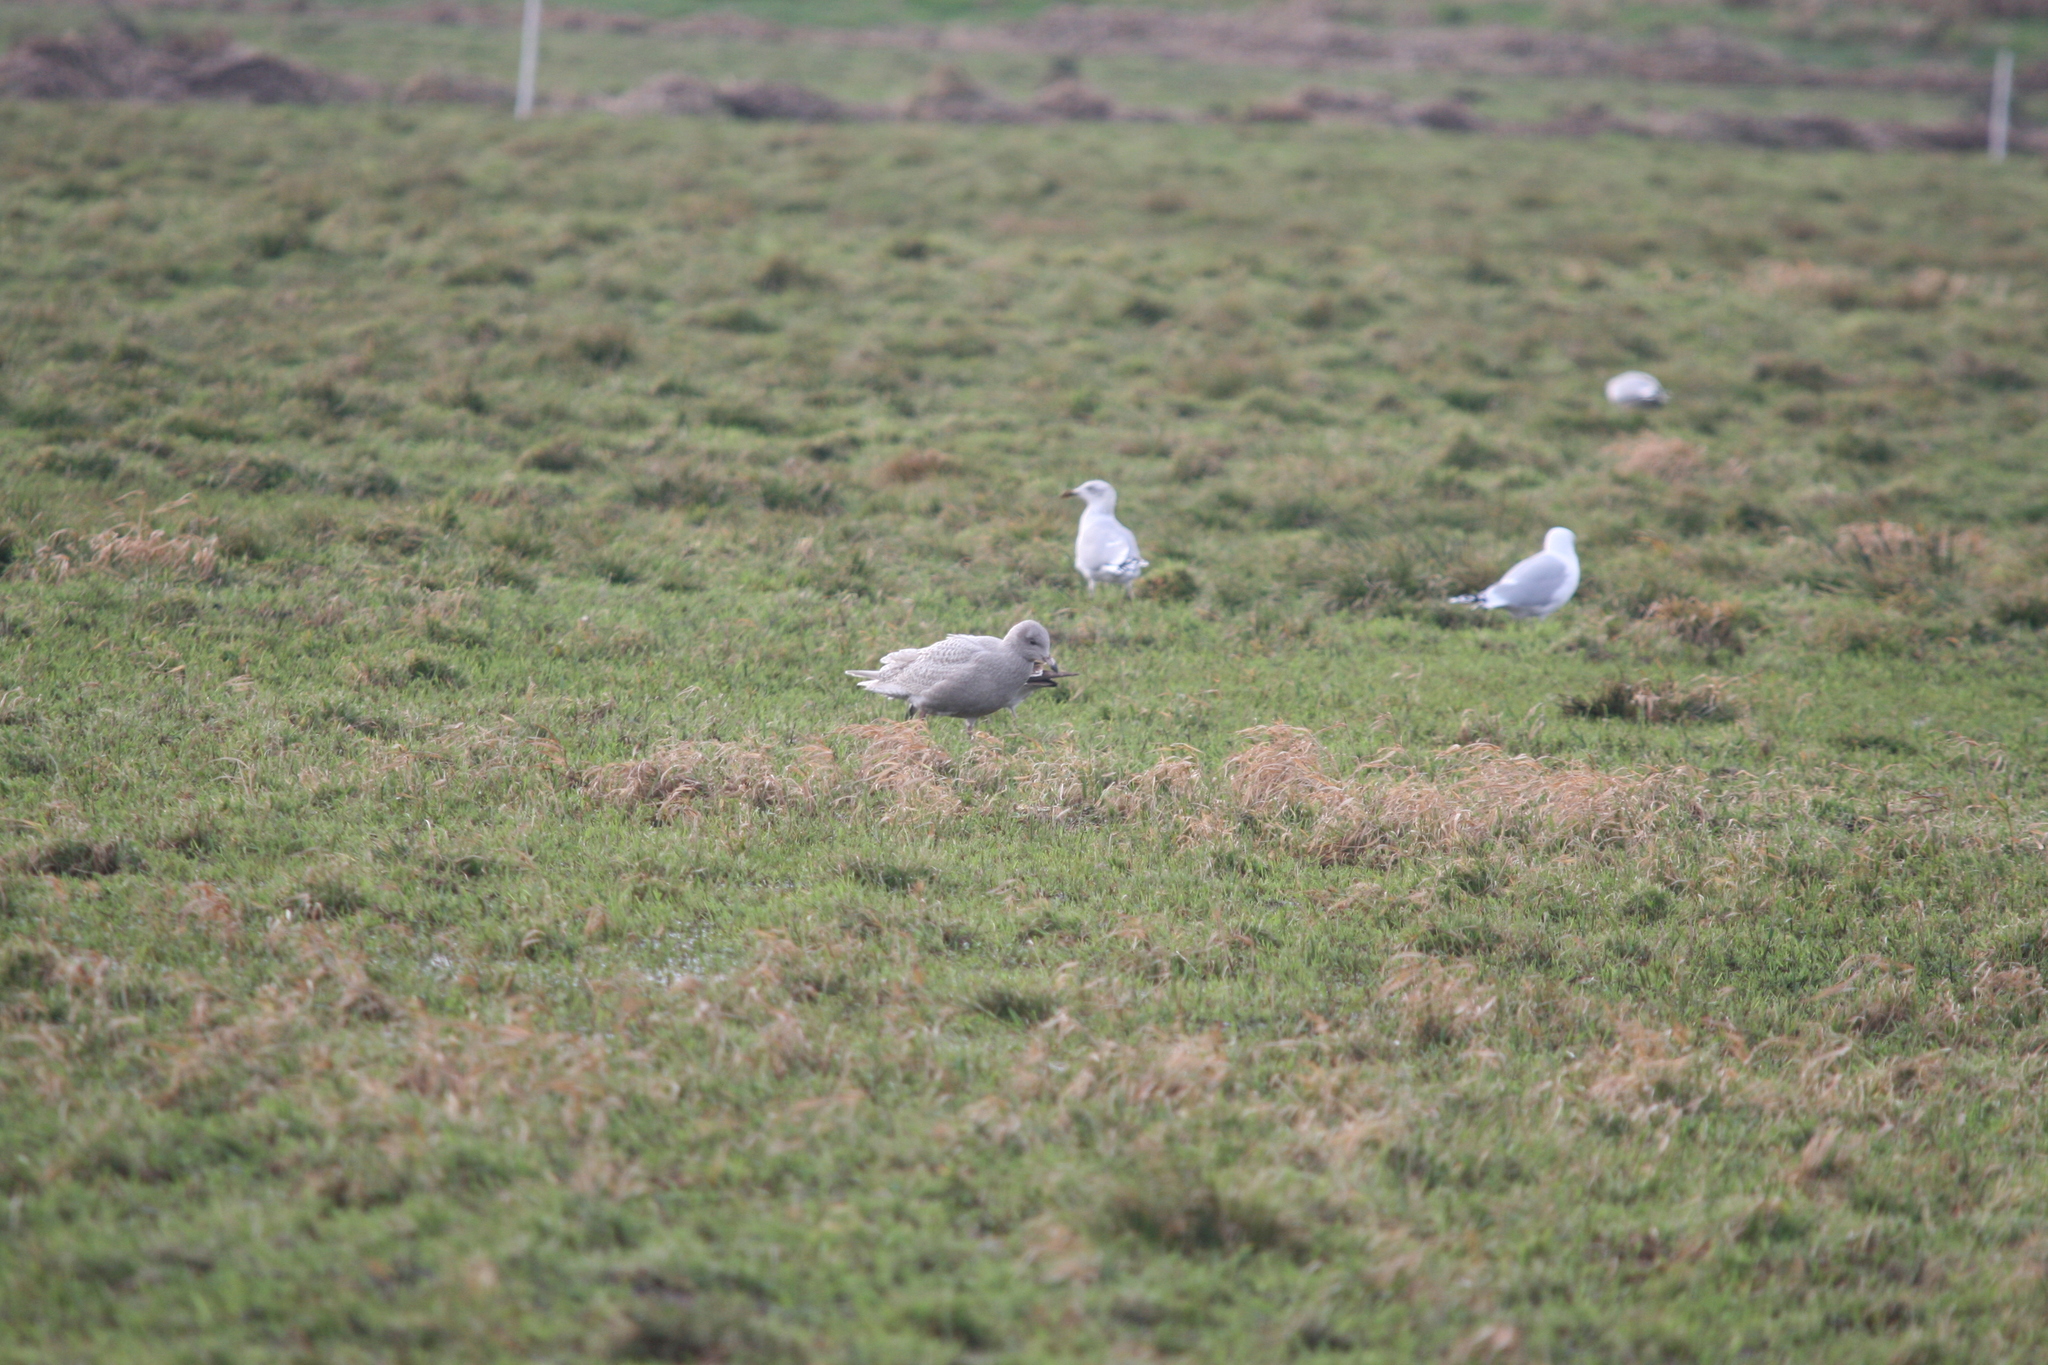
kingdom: Animalia
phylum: Chordata
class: Aves
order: Charadriiformes
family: Laridae
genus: Larus
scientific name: Larus hyperboreus
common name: Glaucous gull
